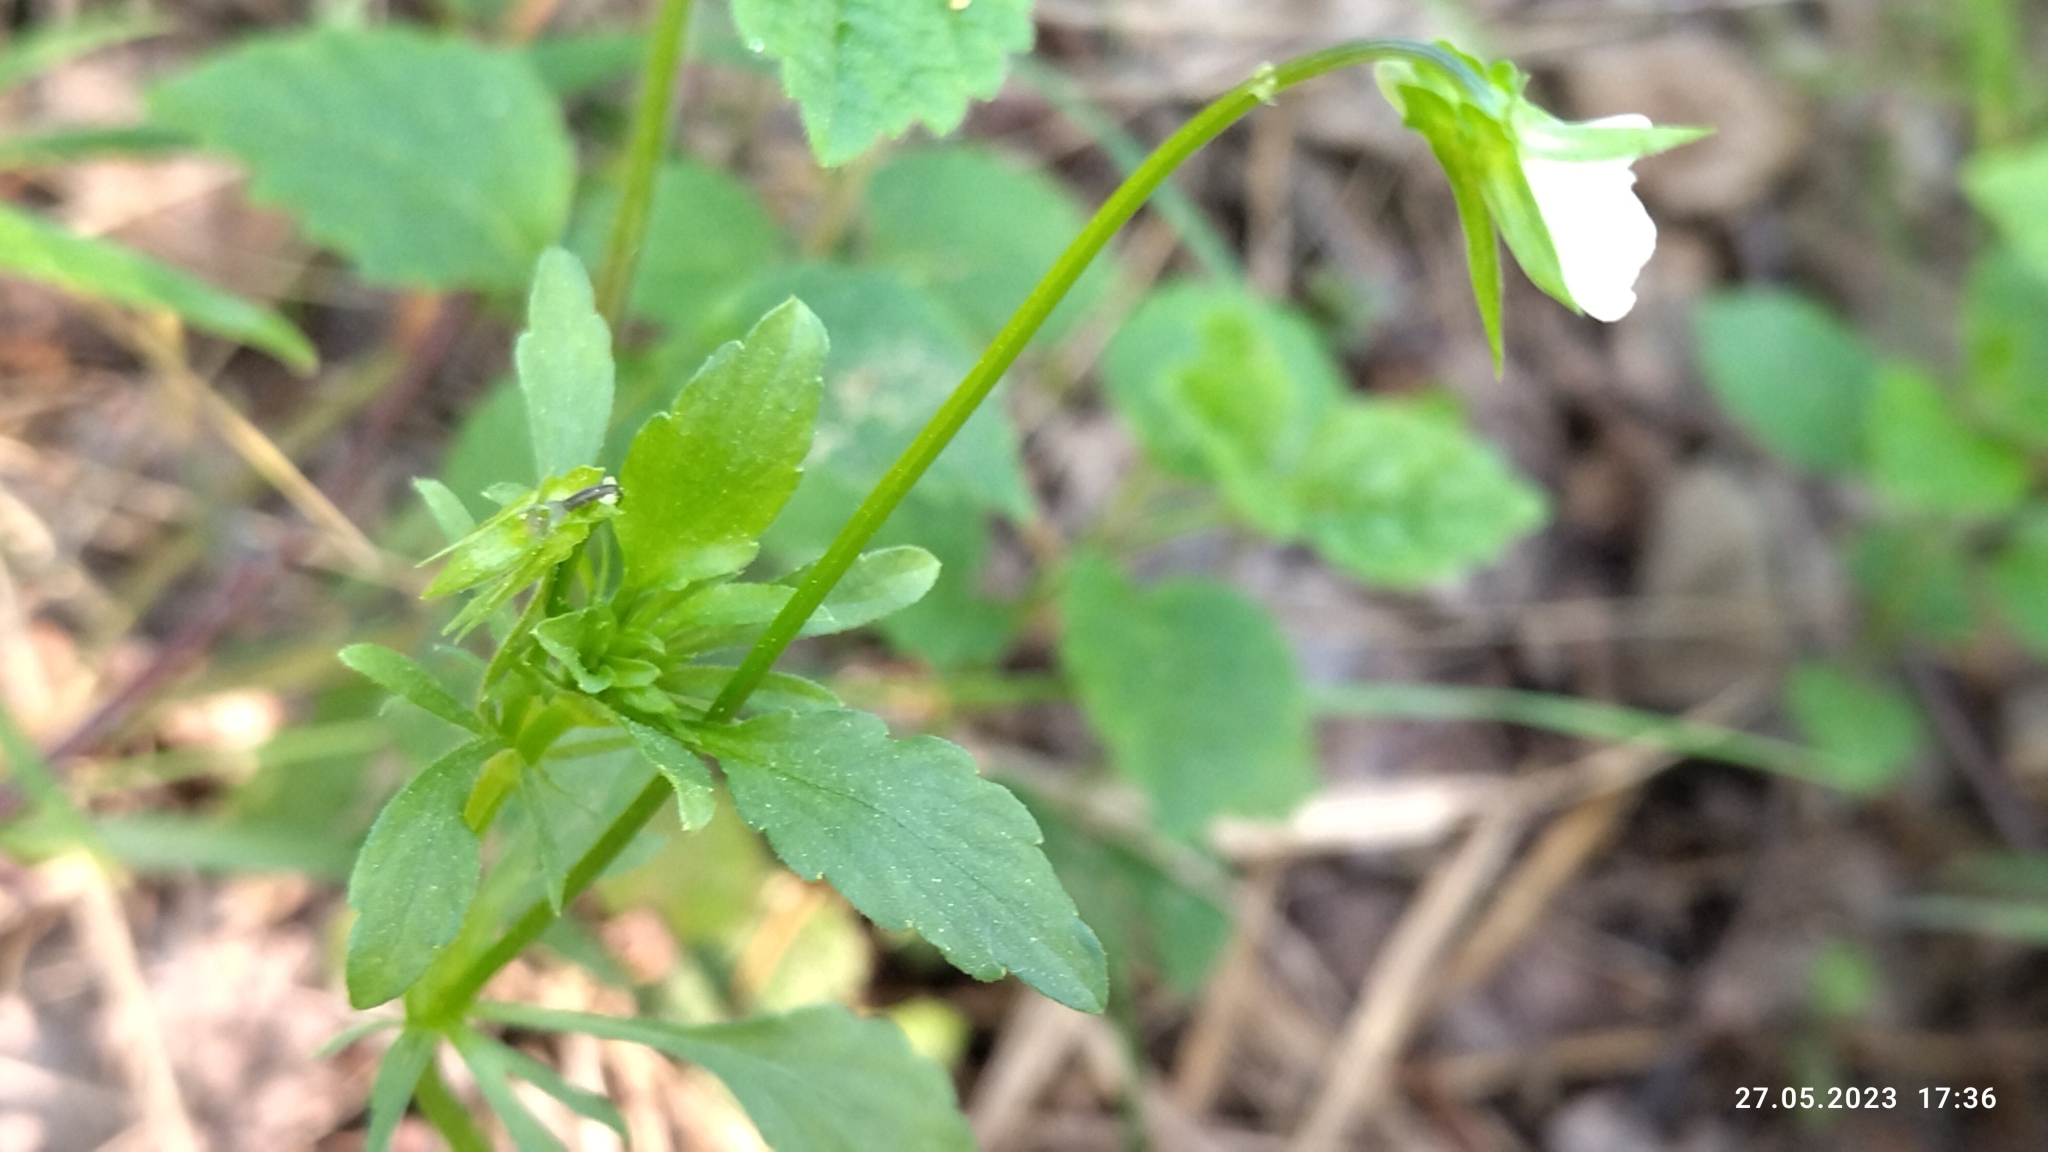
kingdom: Plantae
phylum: Tracheophyta
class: Magnoliopsida
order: Malpighiales
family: Violaceae
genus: Viola
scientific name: Viola arvensis
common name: Field pansy
